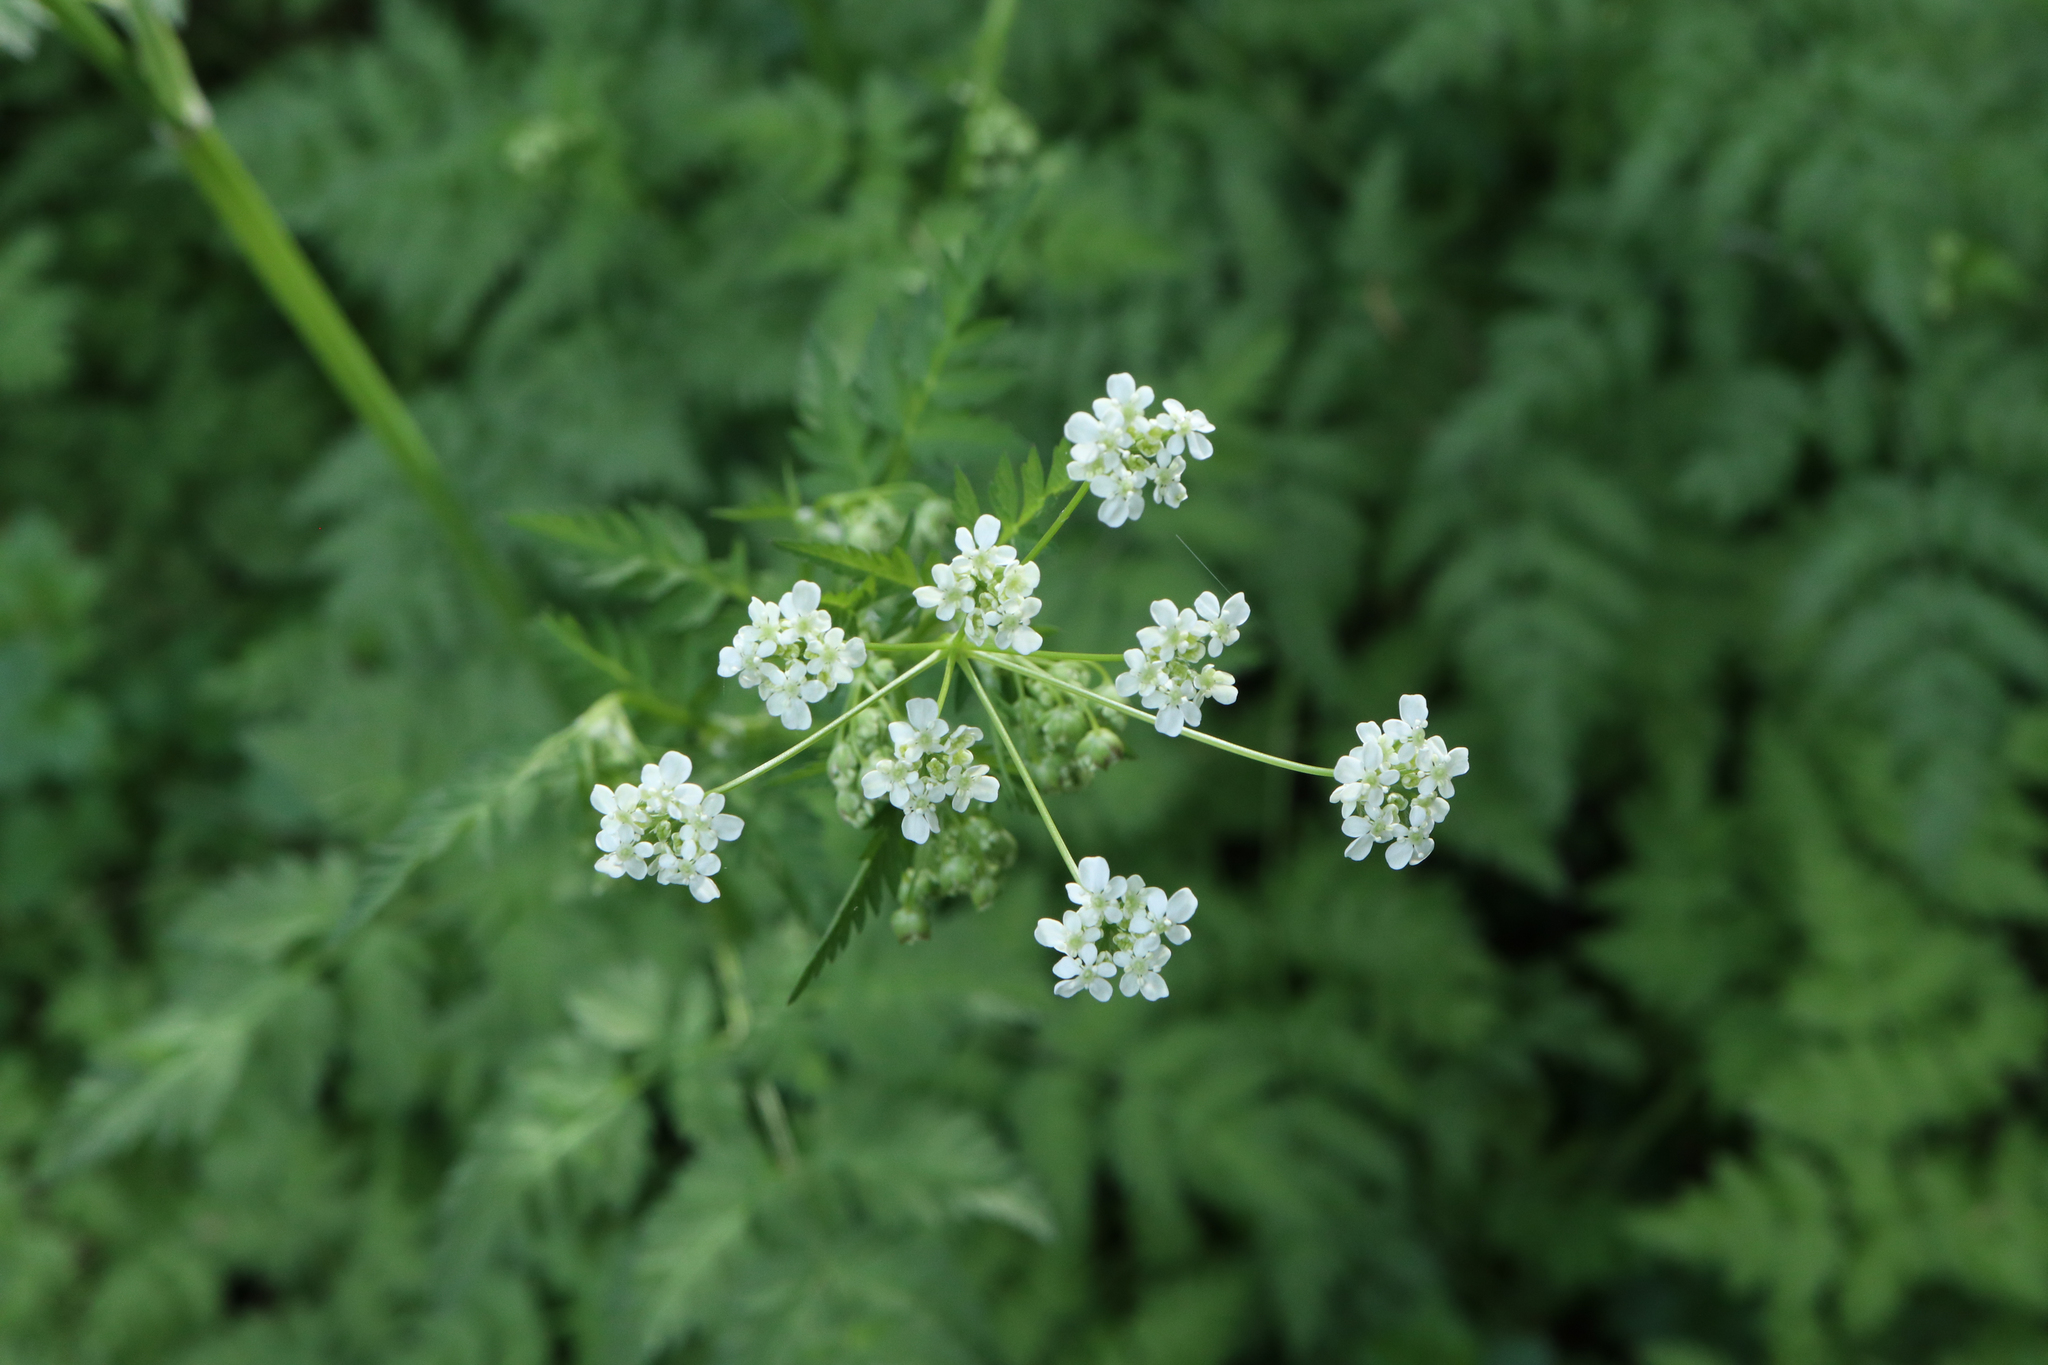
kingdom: Plantae
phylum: Tracheophyta
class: Magnoliopsida
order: Apiales
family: Apiaceae
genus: Anthriscus
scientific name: Anthriscus sylvestris
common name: Cow parsley
